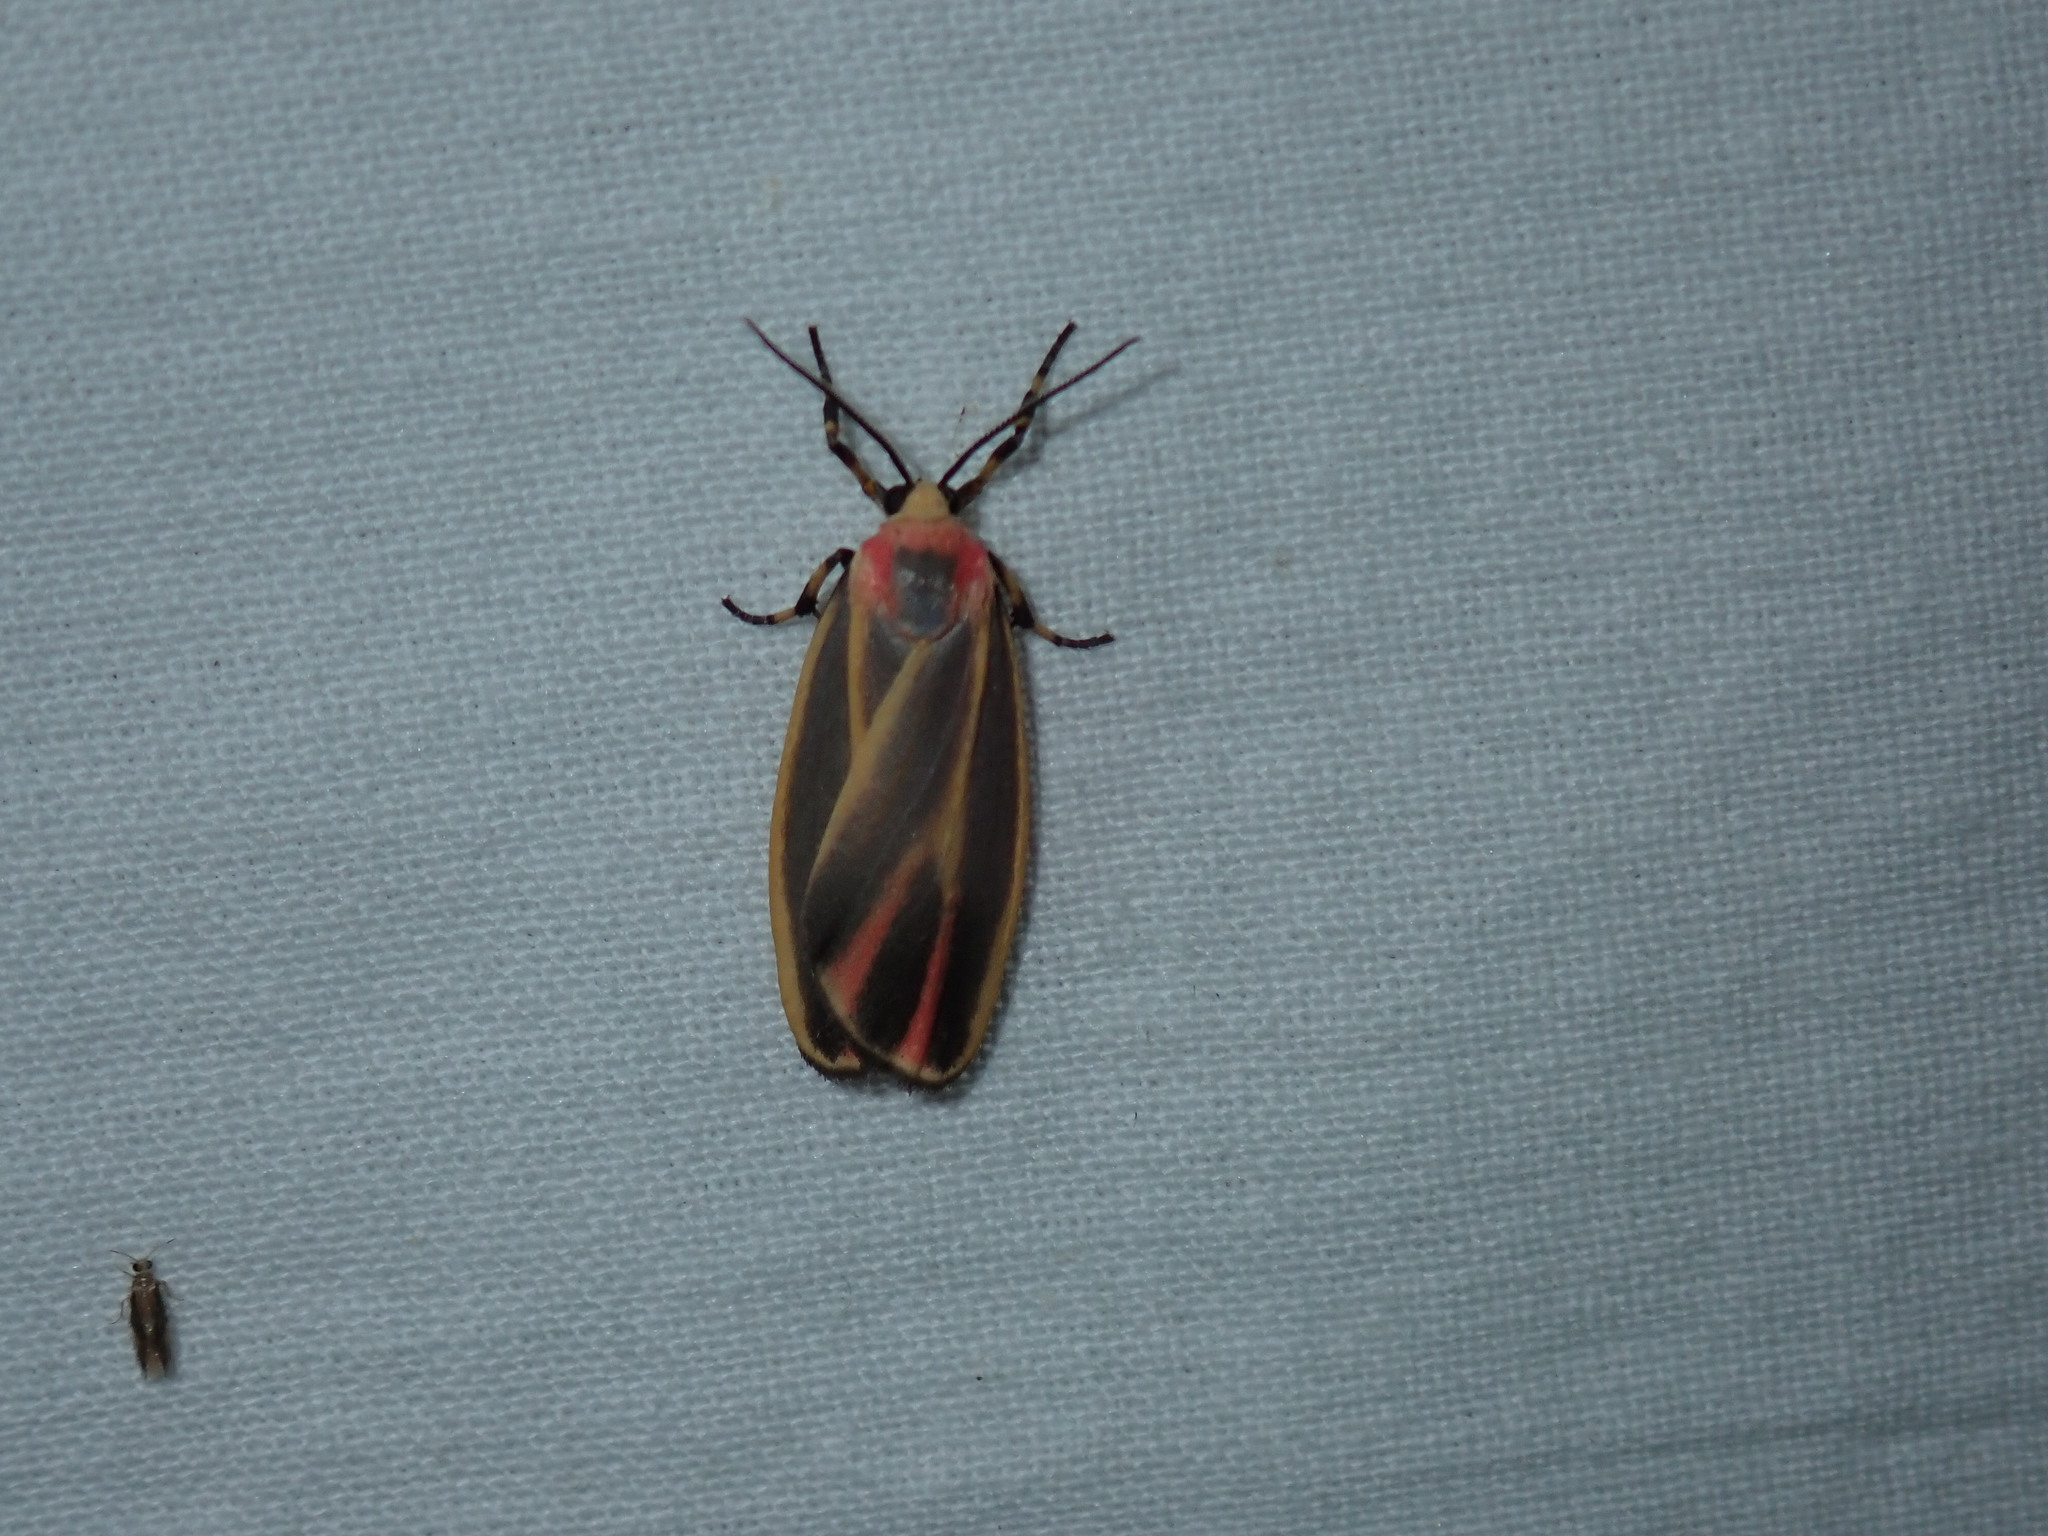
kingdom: Animalia
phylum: Arthropoda
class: Insecta
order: Lepidoptera
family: Erebidae
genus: Hypoprepia
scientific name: Hypoprepia fucosa
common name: Painted lichen moth
